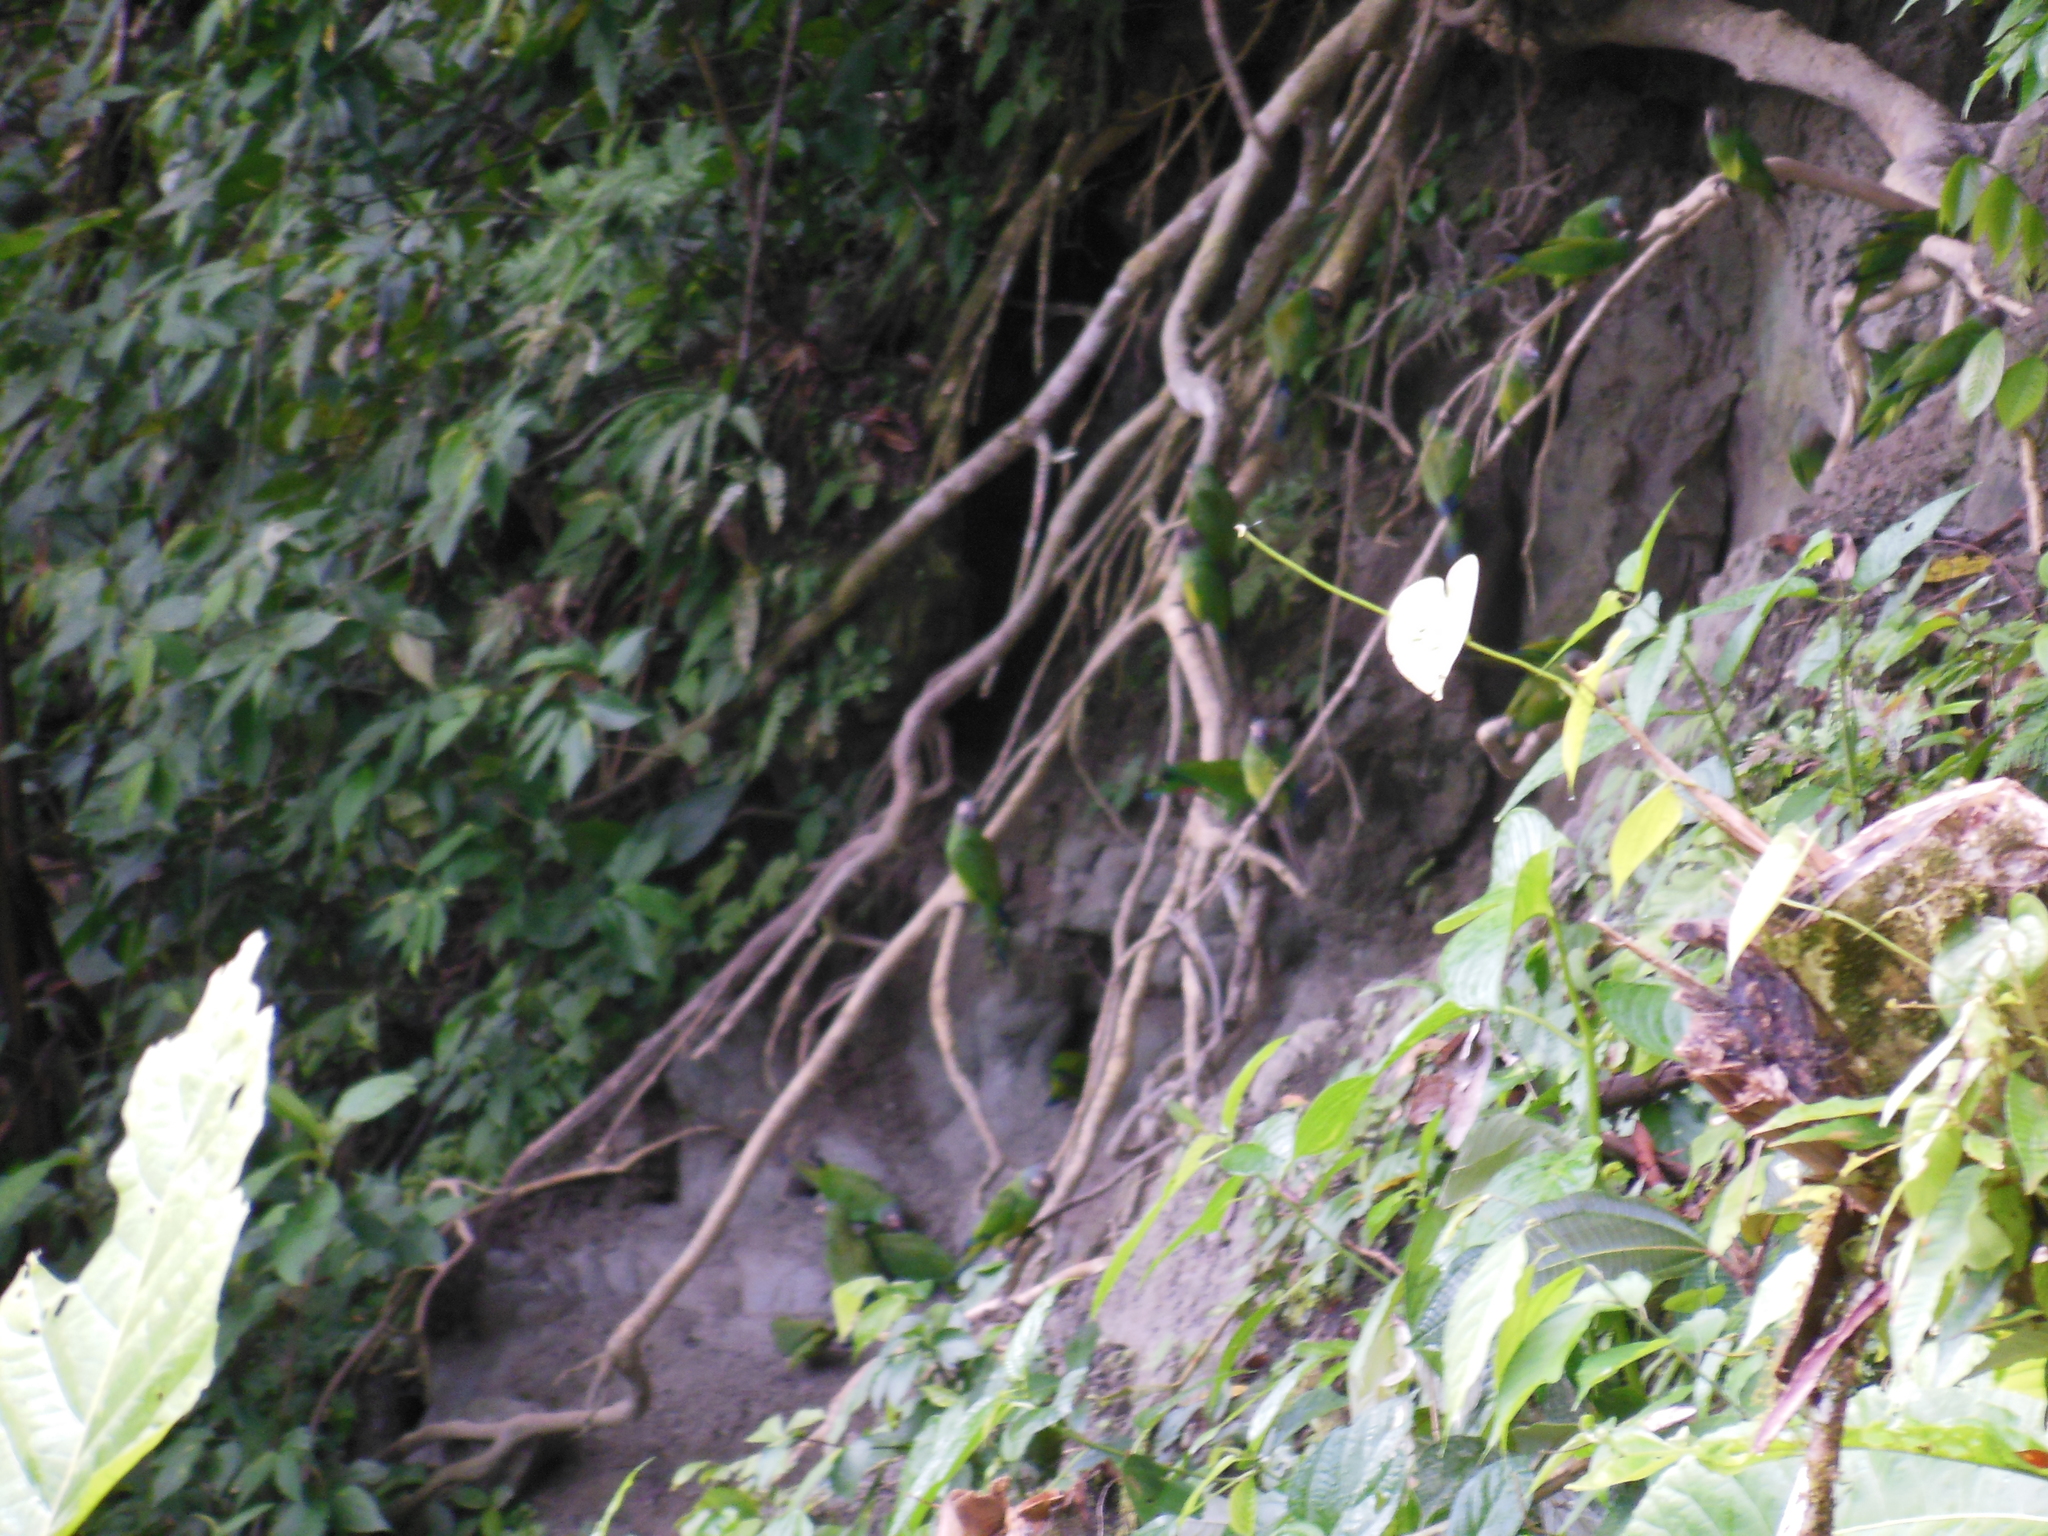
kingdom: Animalia
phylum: Chordata
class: Aves
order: Psittaciformes
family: Psittacidae
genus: Aratinga
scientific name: Aratinga weddellii
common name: Dusky-headed parakeet
